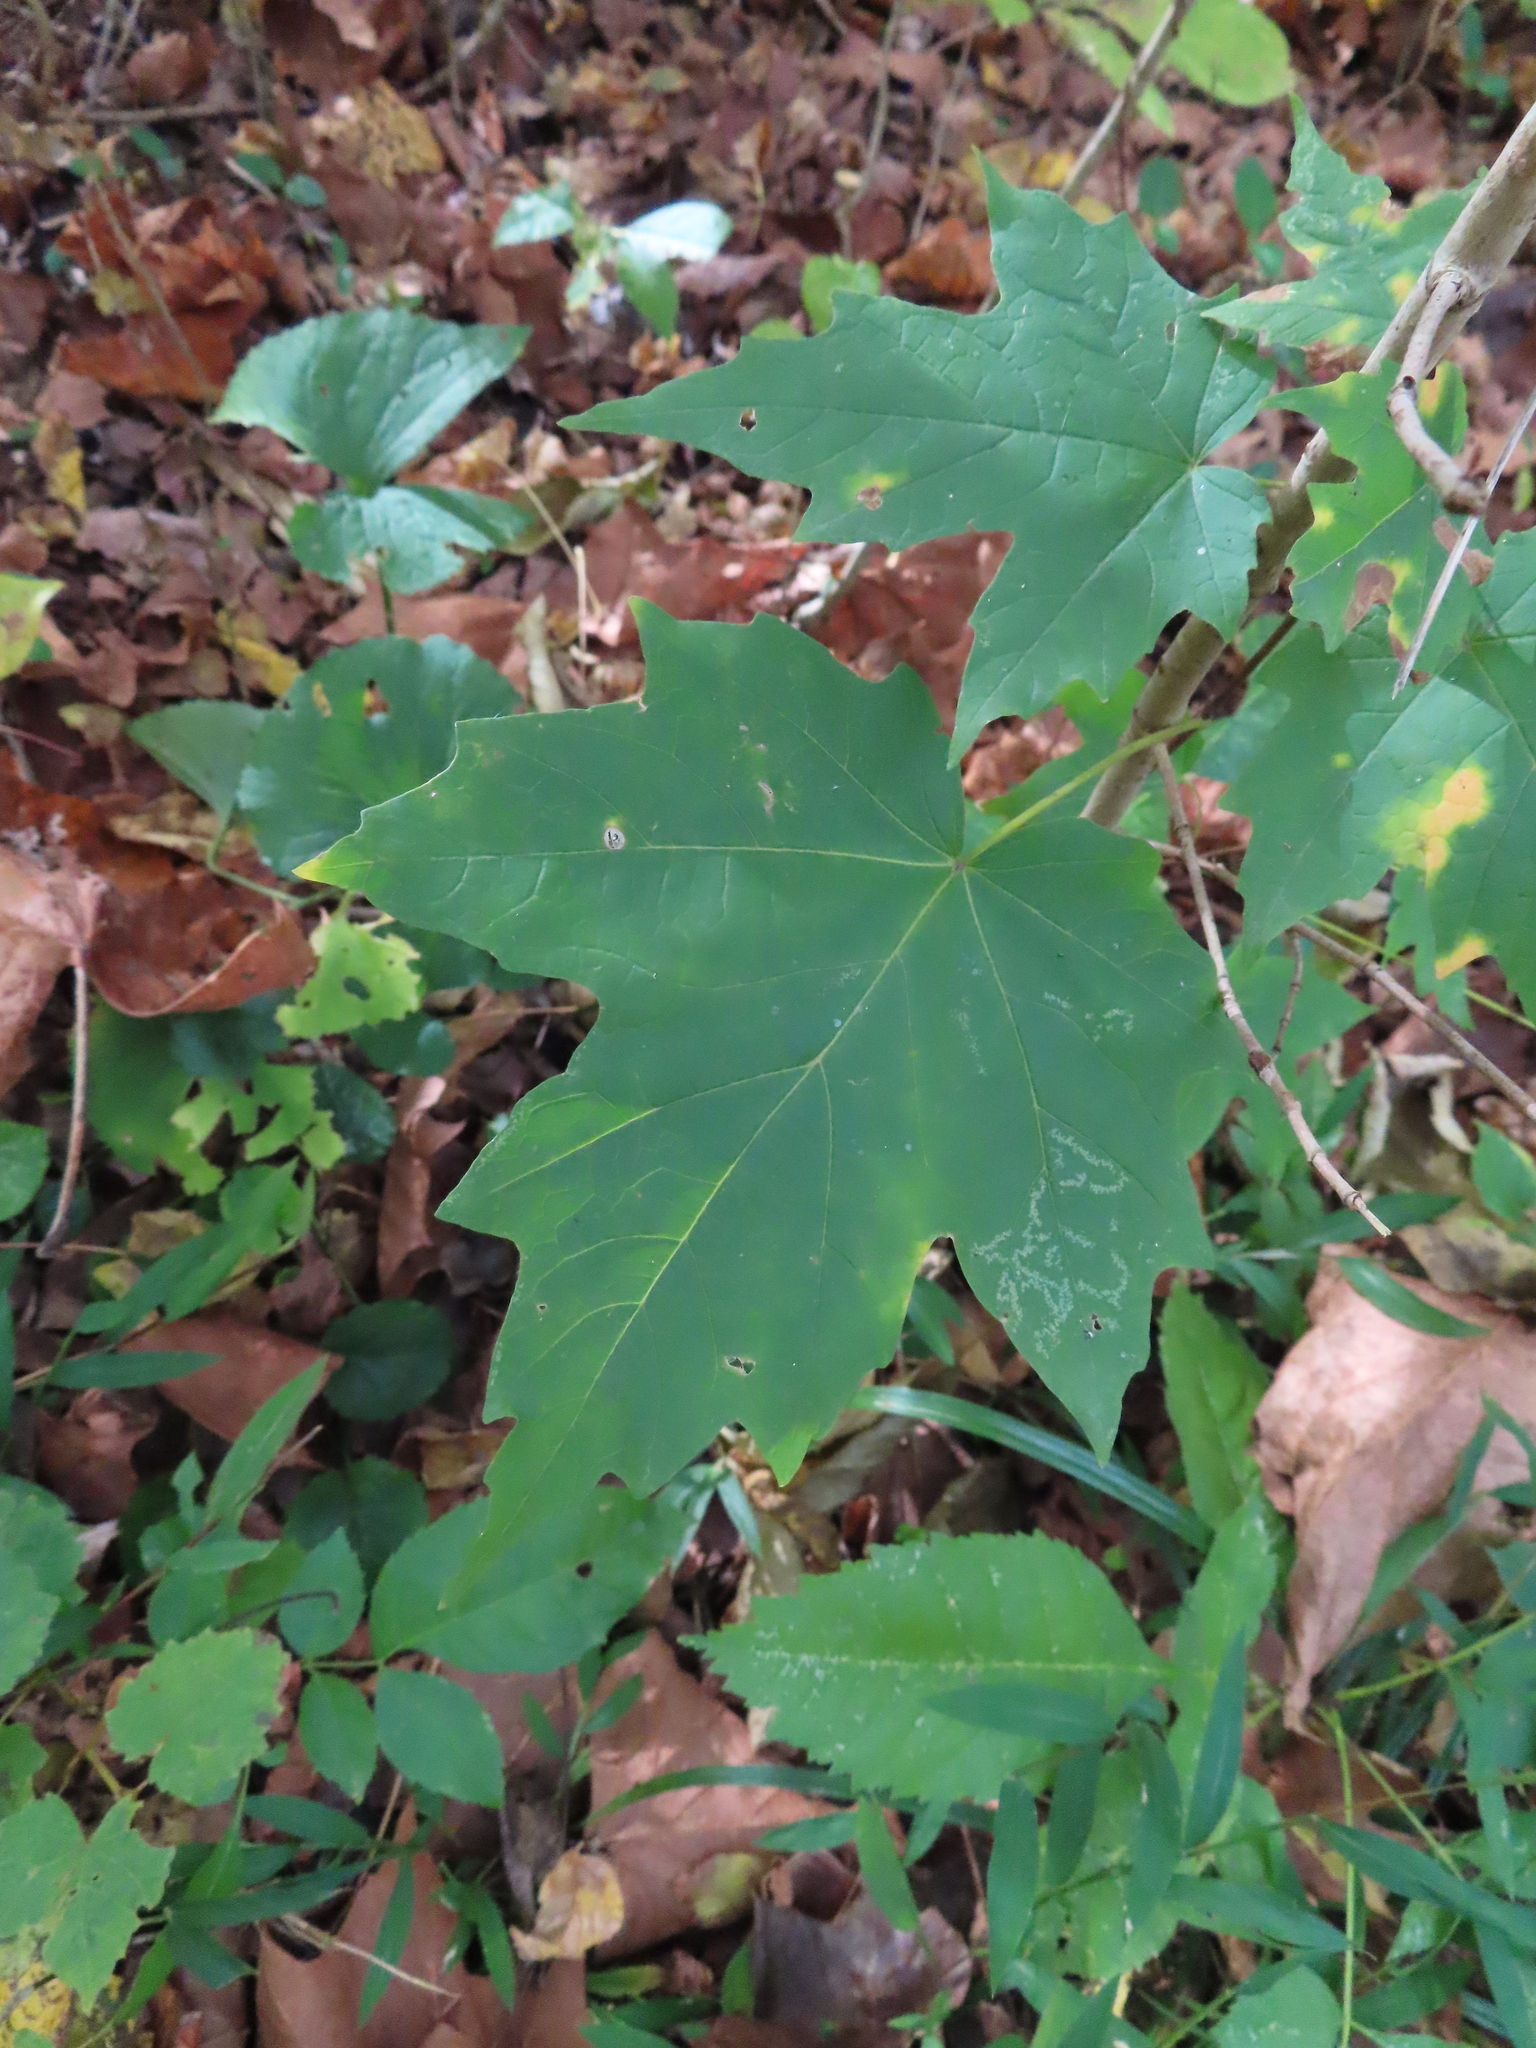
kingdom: Plantae
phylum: Tracheophyta
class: Magnoliopsida
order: Sapindales
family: Sapindaceae
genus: Acer
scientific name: Acer saccharum
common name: Sugar maple
